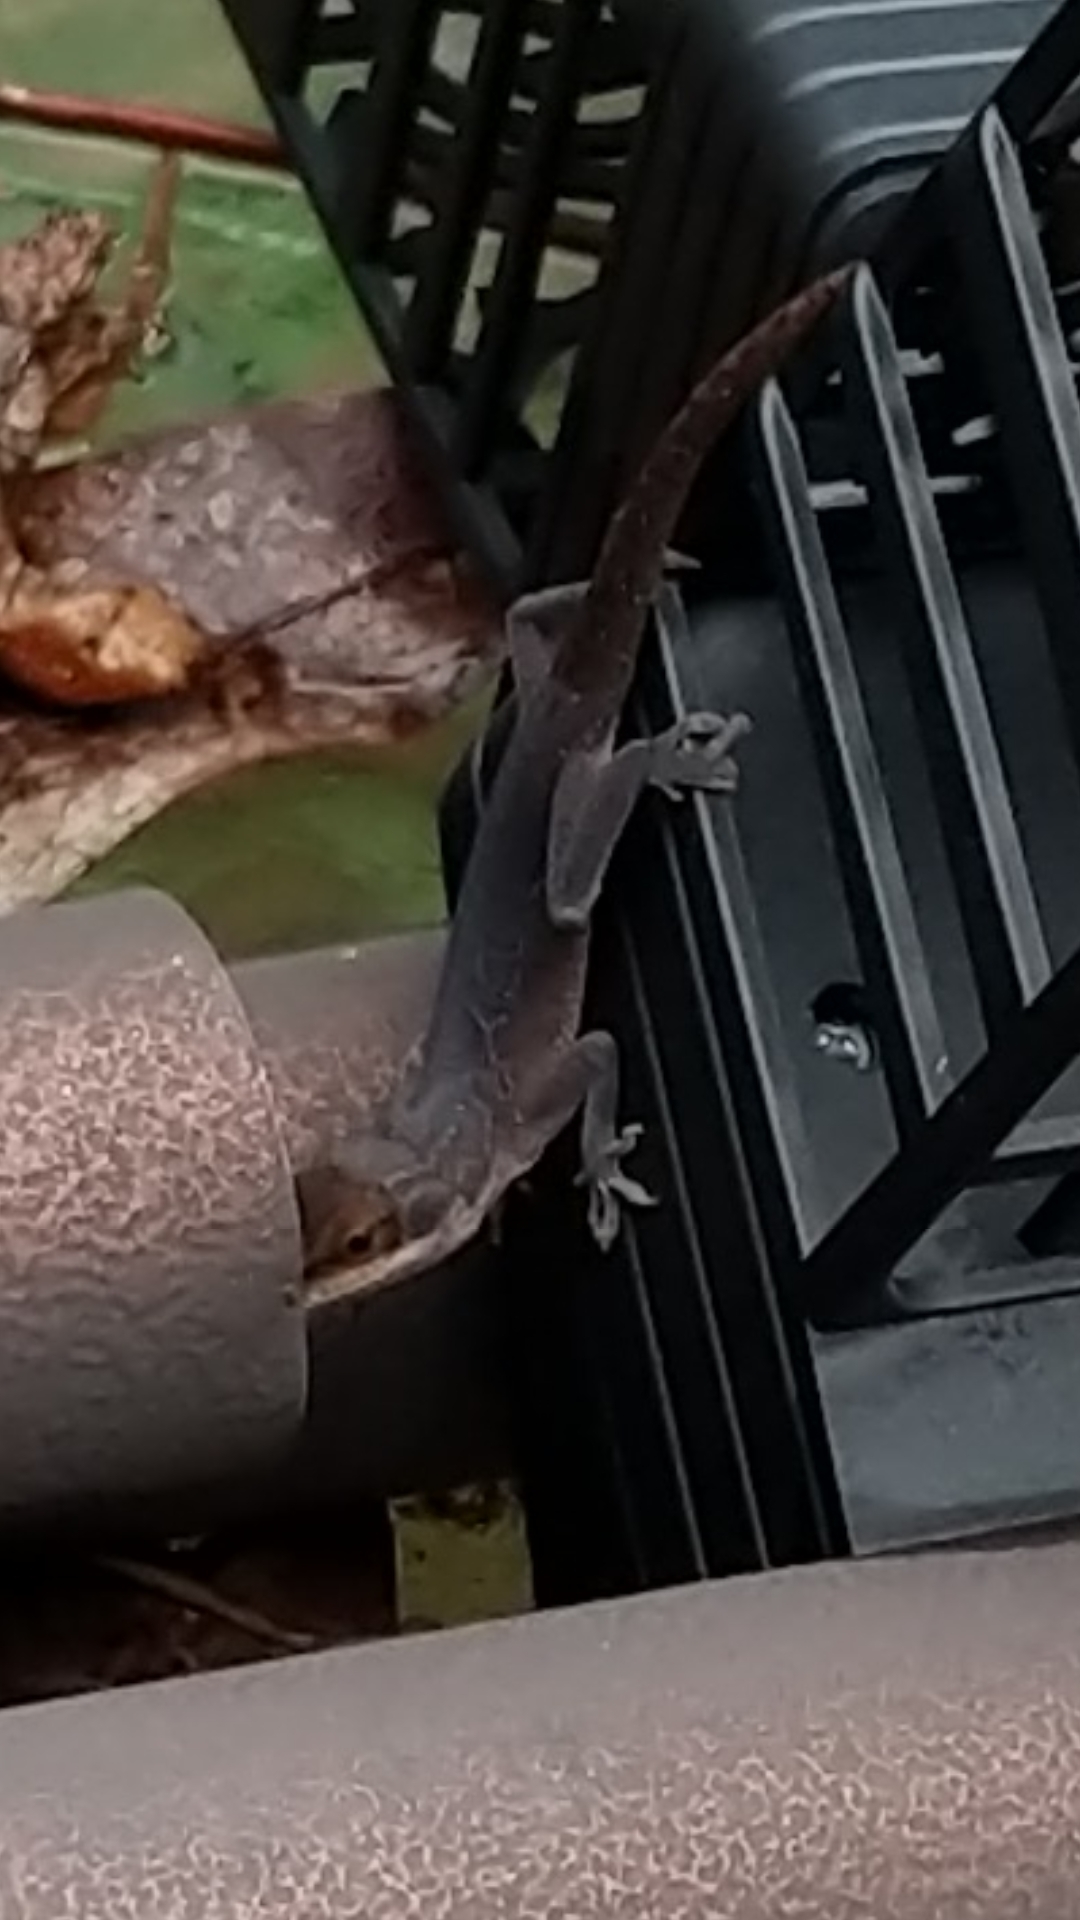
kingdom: Animalia
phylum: Chordata
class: Squamata
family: Dactyloidae
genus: Anolis
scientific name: Anolis carolinensis
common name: Green anole
